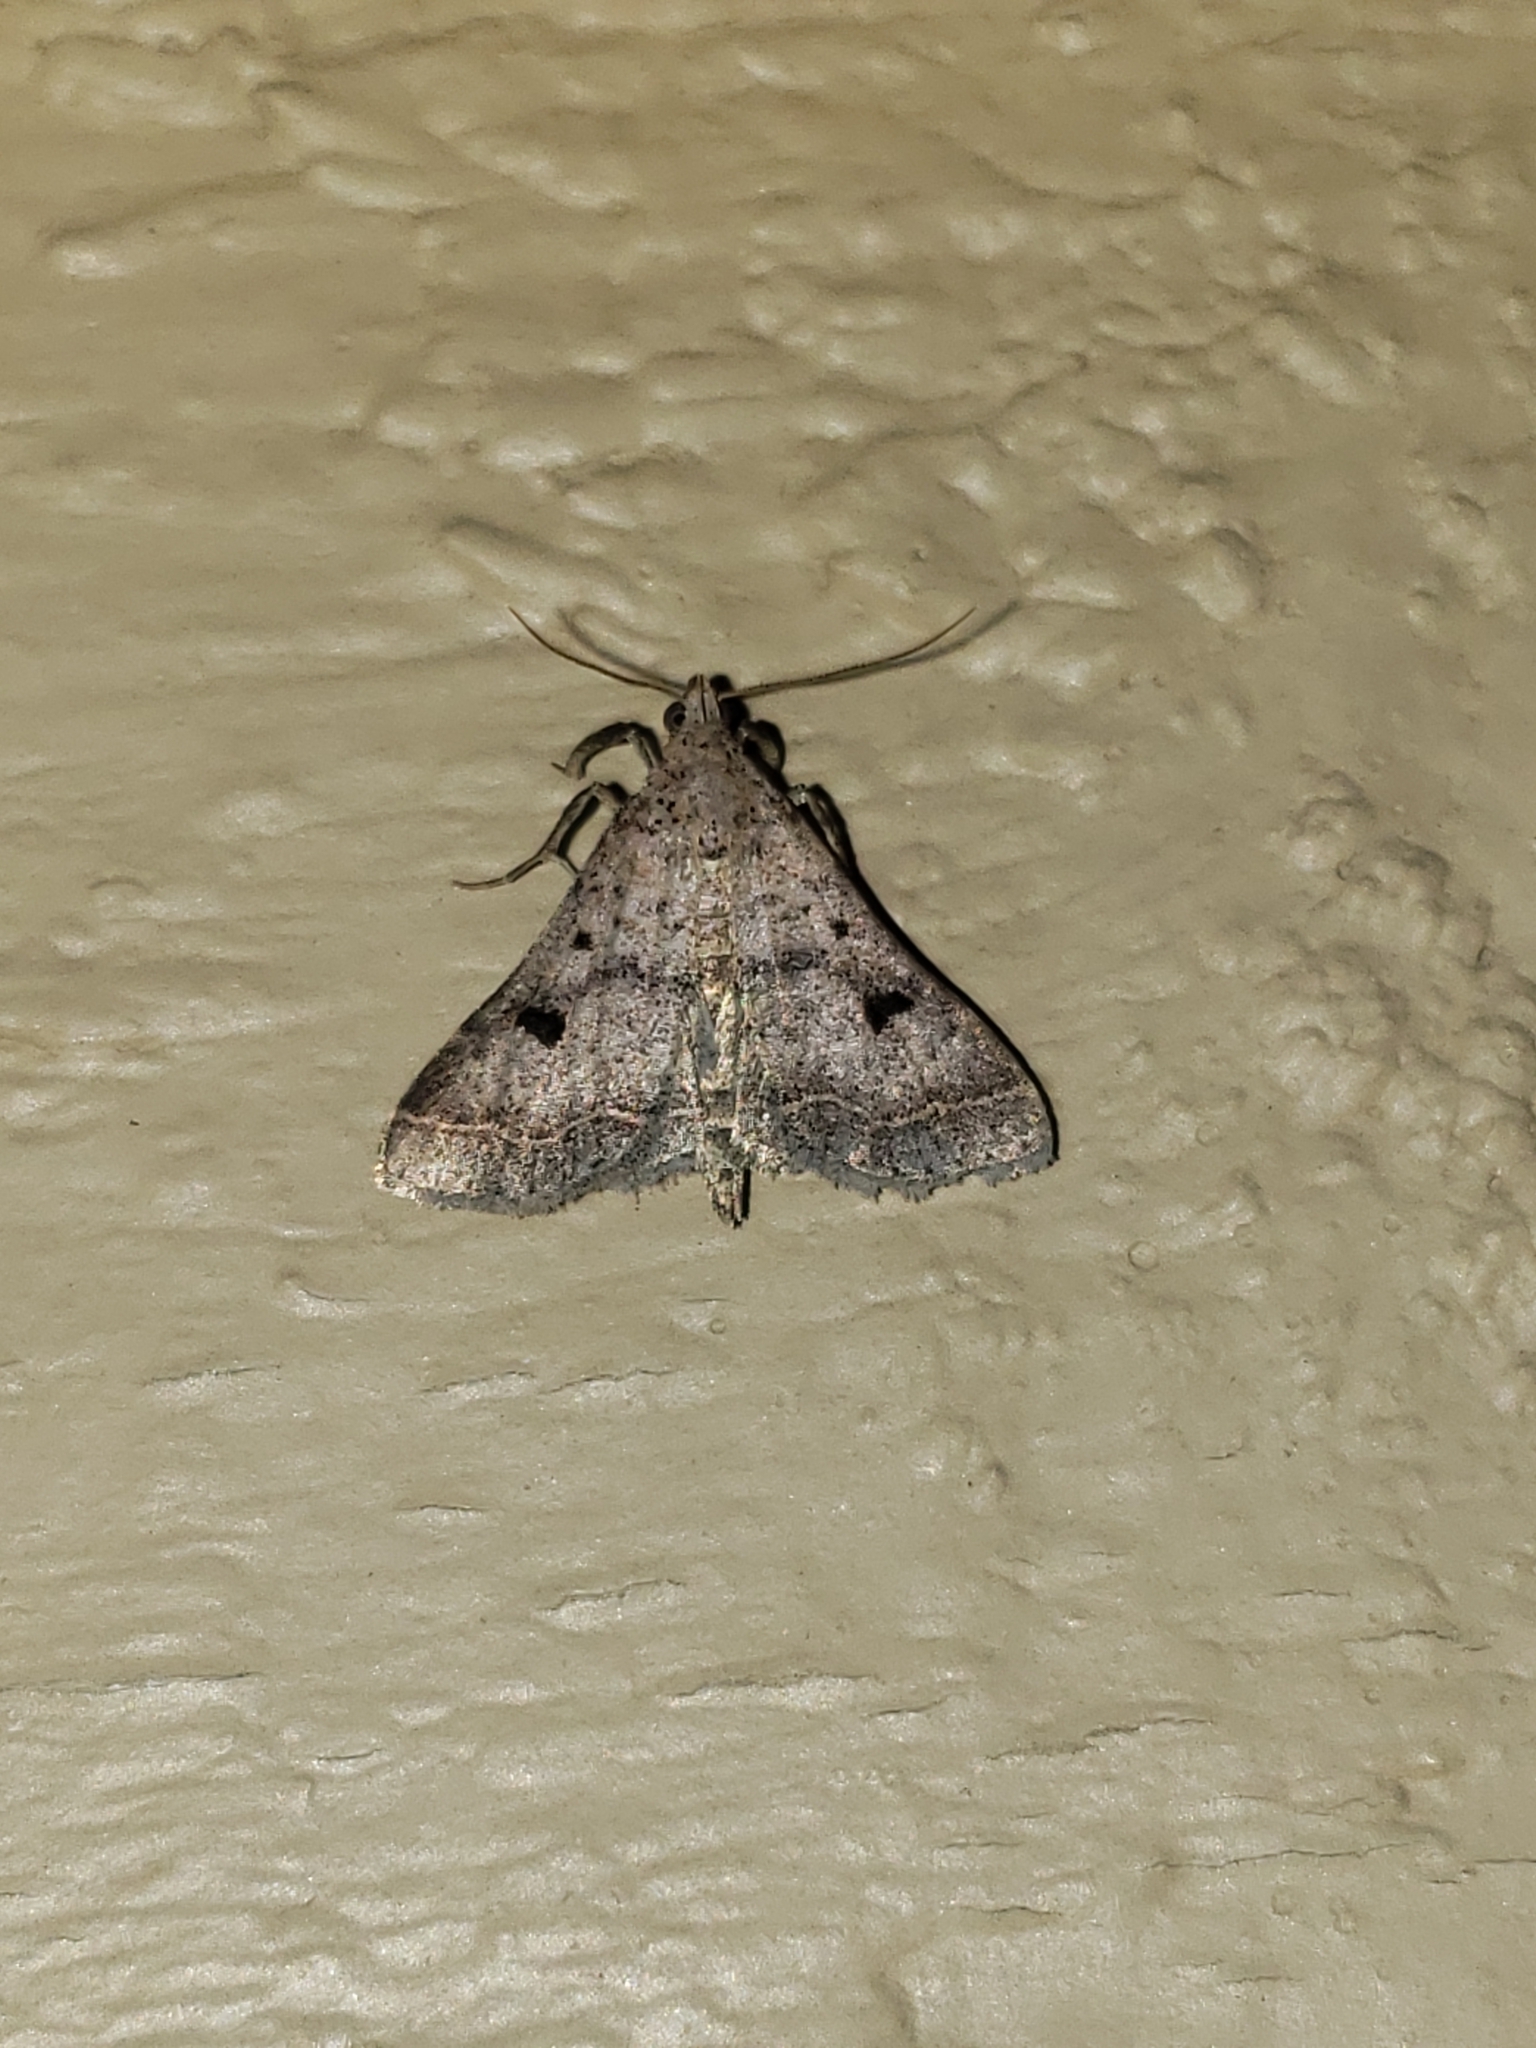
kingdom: Animalia
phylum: Arthropoda
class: Insecta
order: Lepidoptera
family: Erebidae
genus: Bleptina
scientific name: Bleptina caradrinalis
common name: Bent-winged owlet
